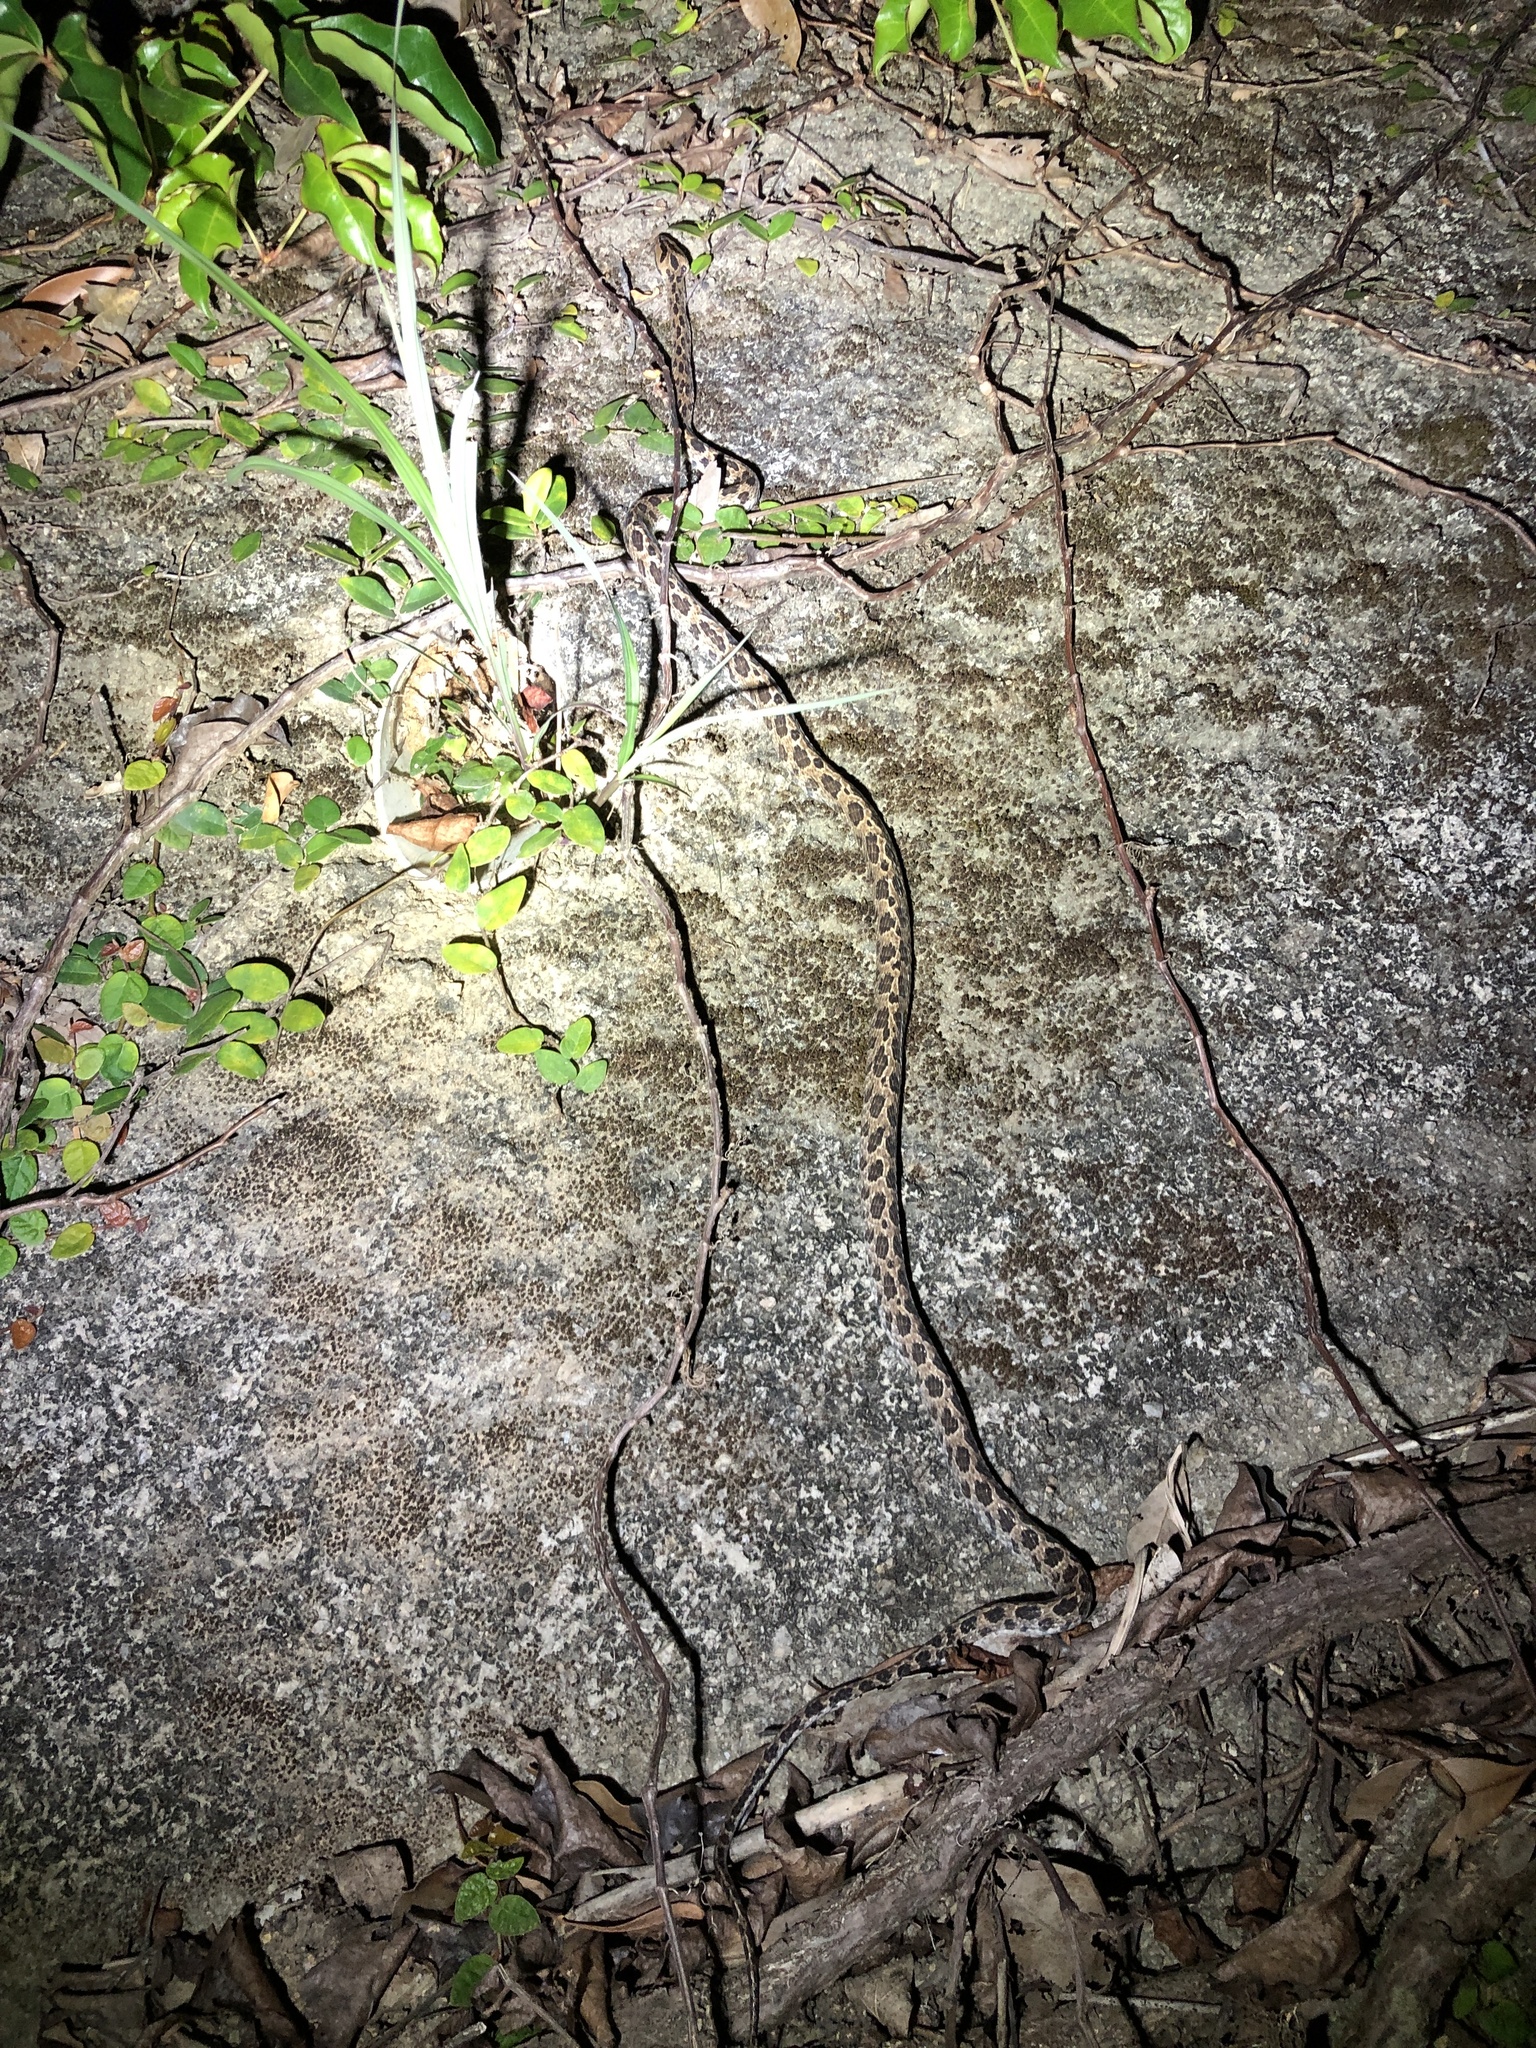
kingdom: Animalia
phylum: Chordata
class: Squamata
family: Colubridae
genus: Boiga
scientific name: Boiga multomaculata
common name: Many-spotted cat snake
